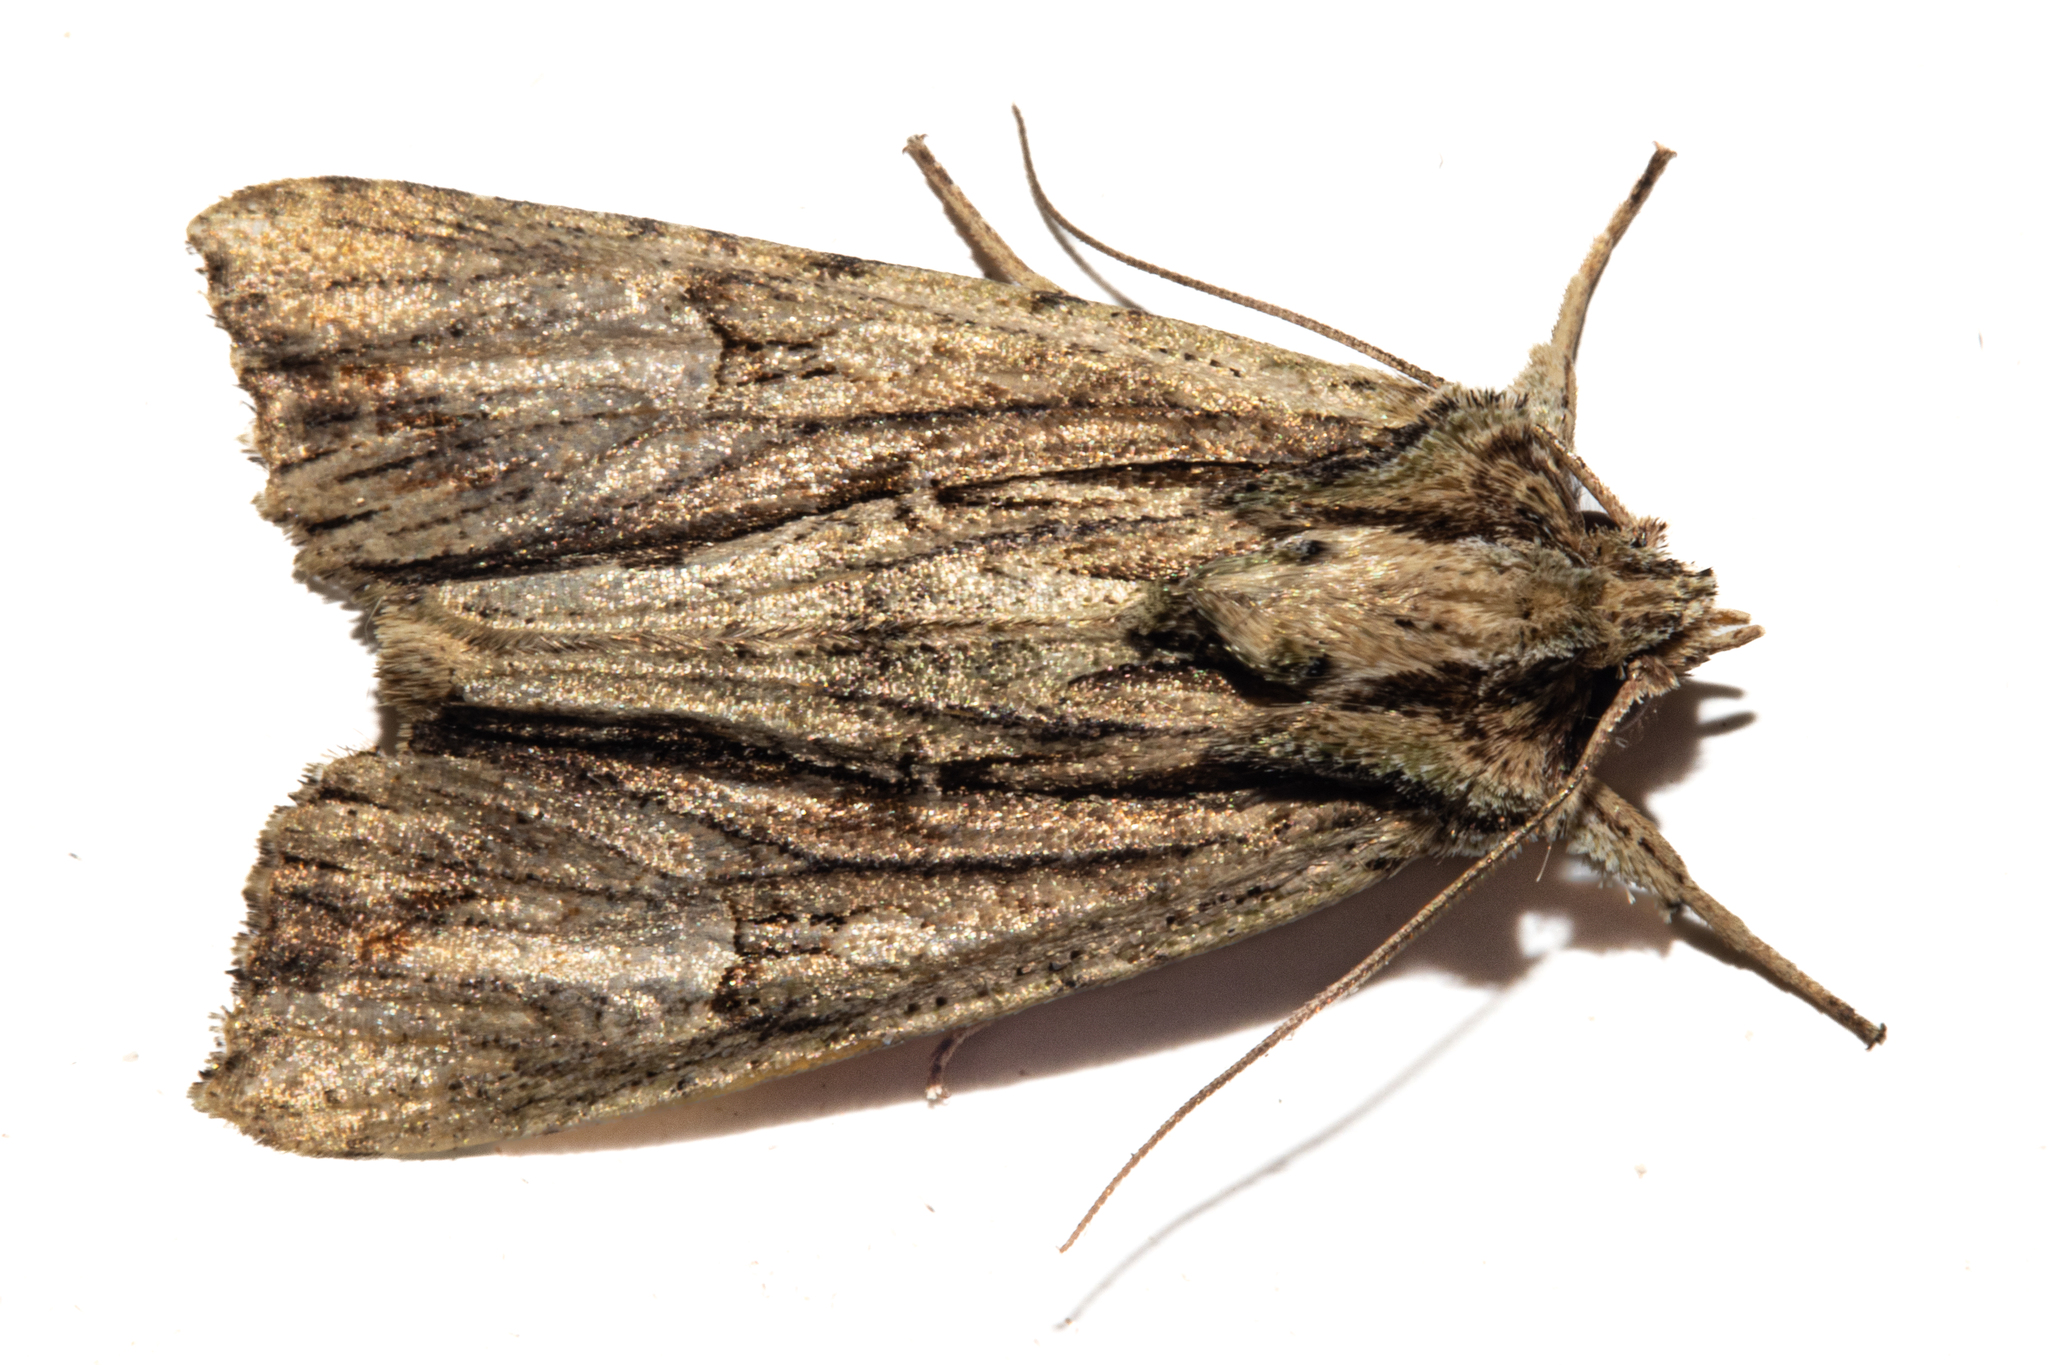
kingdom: Animalia
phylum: Arthropoda
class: Insecta
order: Lepidoptera
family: Noctuidae
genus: Meterana
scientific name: Meterana decorata
